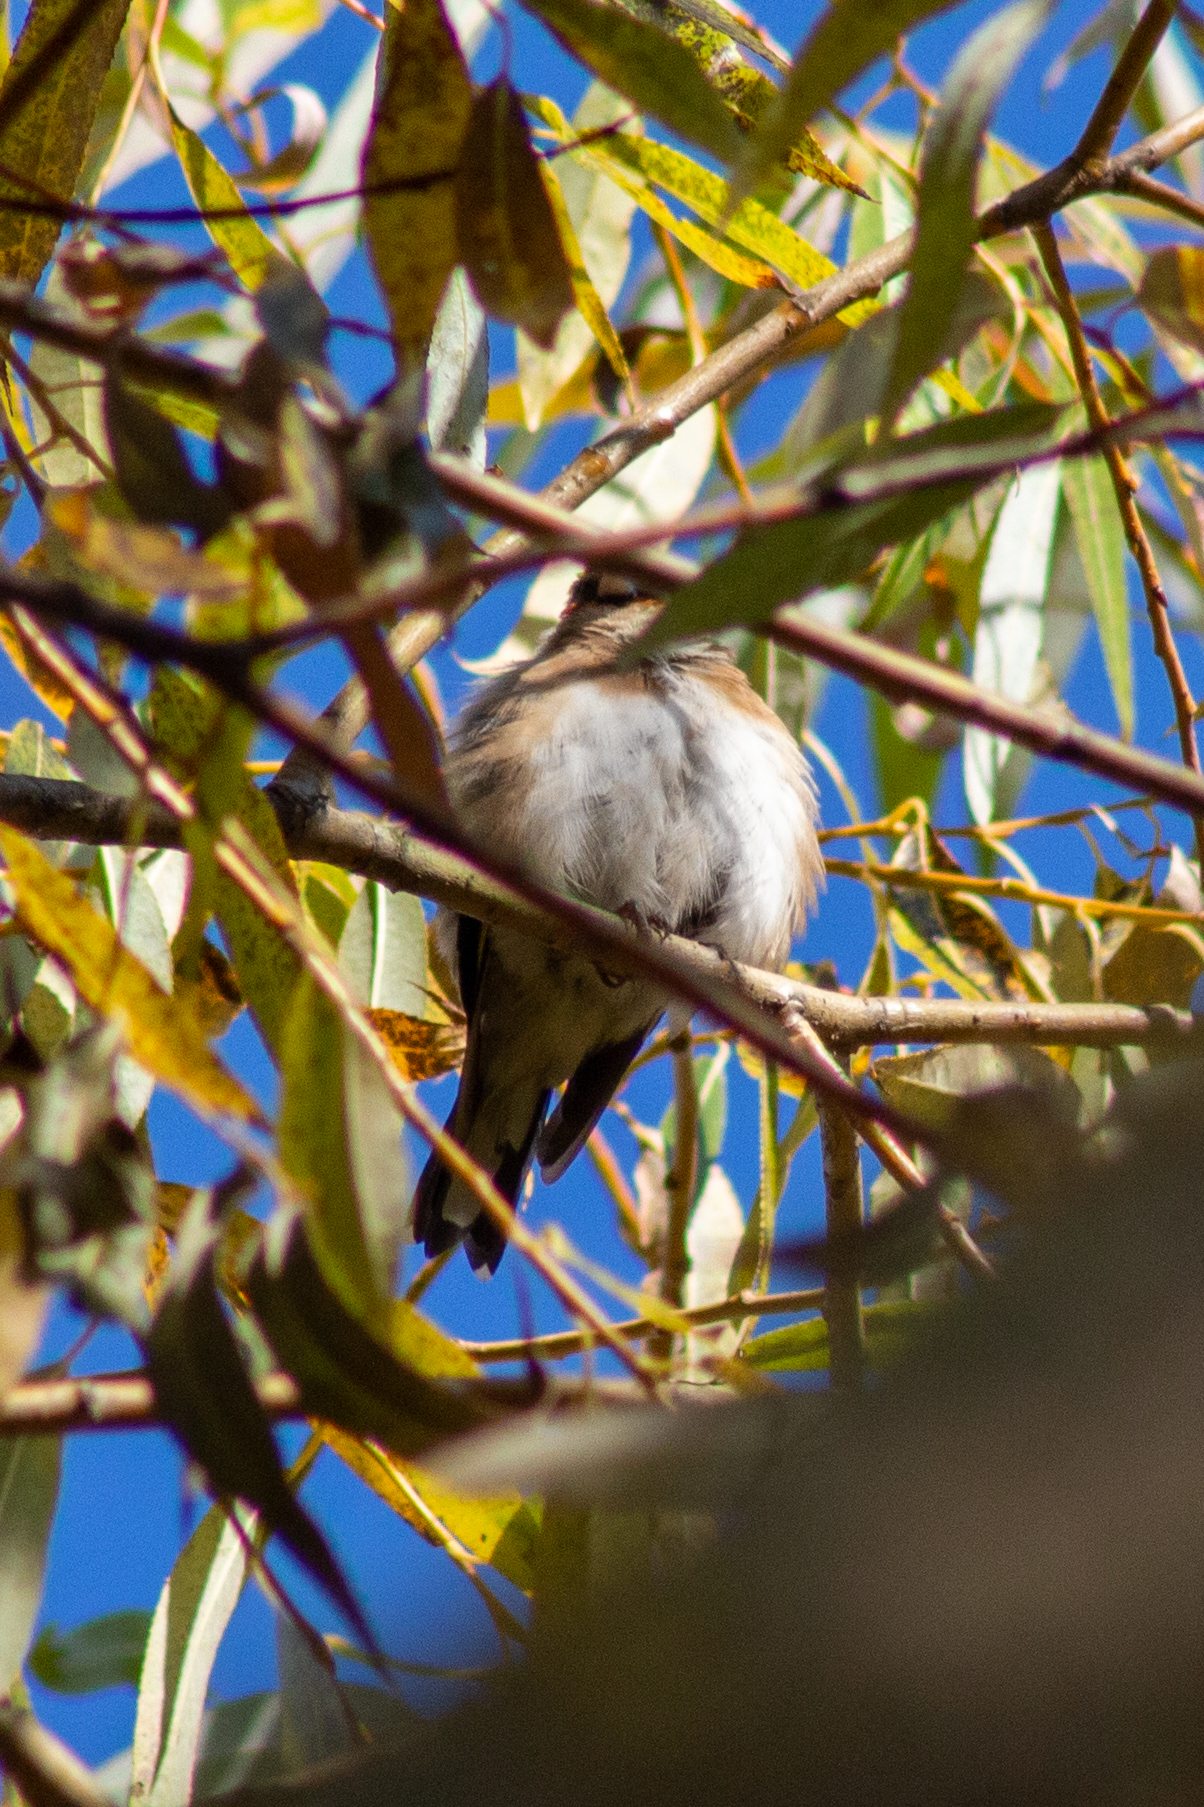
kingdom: Animalia
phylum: Chordata
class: Aves
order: Passeriformes
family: Fringillidae
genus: Carduelis
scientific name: Carduelis carduelis
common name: European goldfinch
